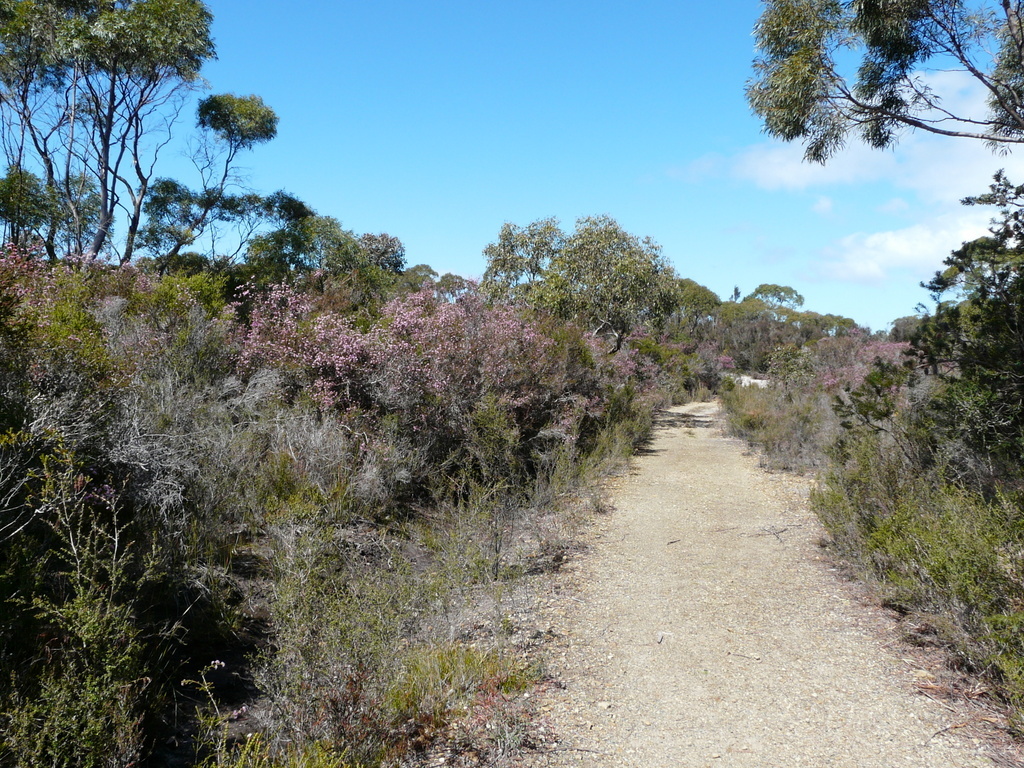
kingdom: Plantae
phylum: Tracheophyta
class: Magnoliopsida
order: Myrtales
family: Myrtaceae
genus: Melaleuca
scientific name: Melaleuca squamea
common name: Swamp melaleuca
